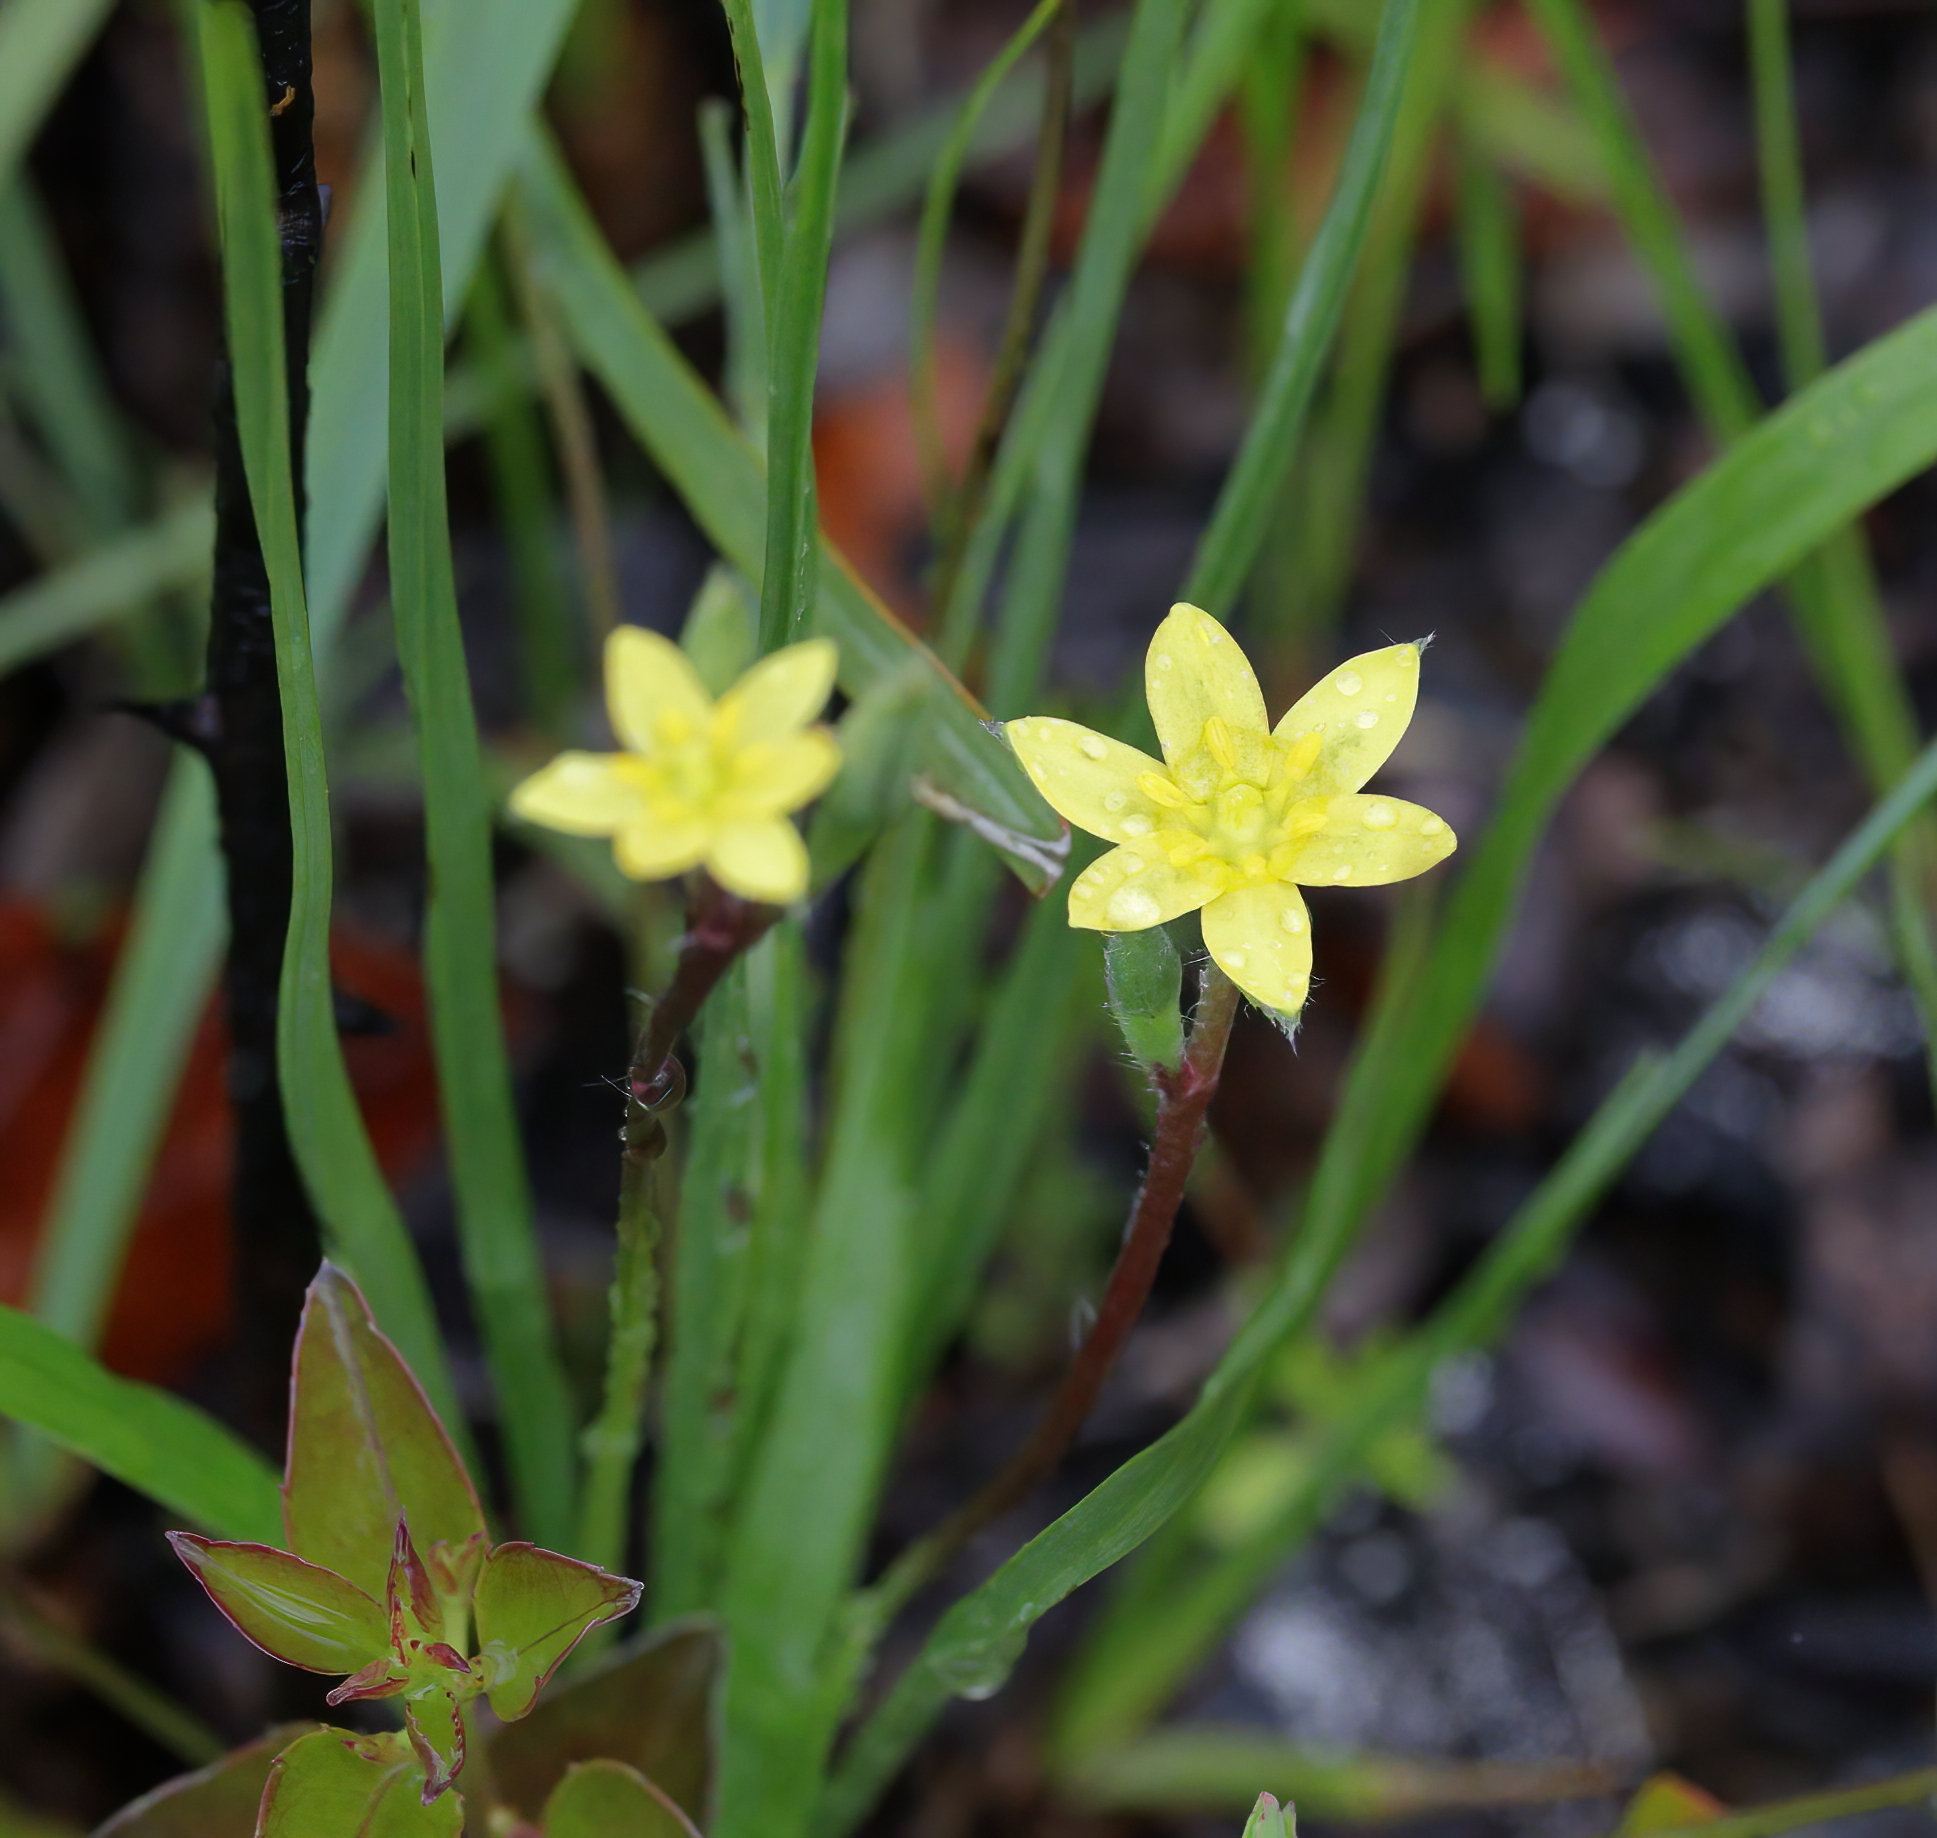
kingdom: Plantae
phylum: Tracheophyta
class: Liliopsida
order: Asparagales
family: Hypoxidaceae
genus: Hypoxis
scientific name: Hypoxis hirsuta
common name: Common goldstar
